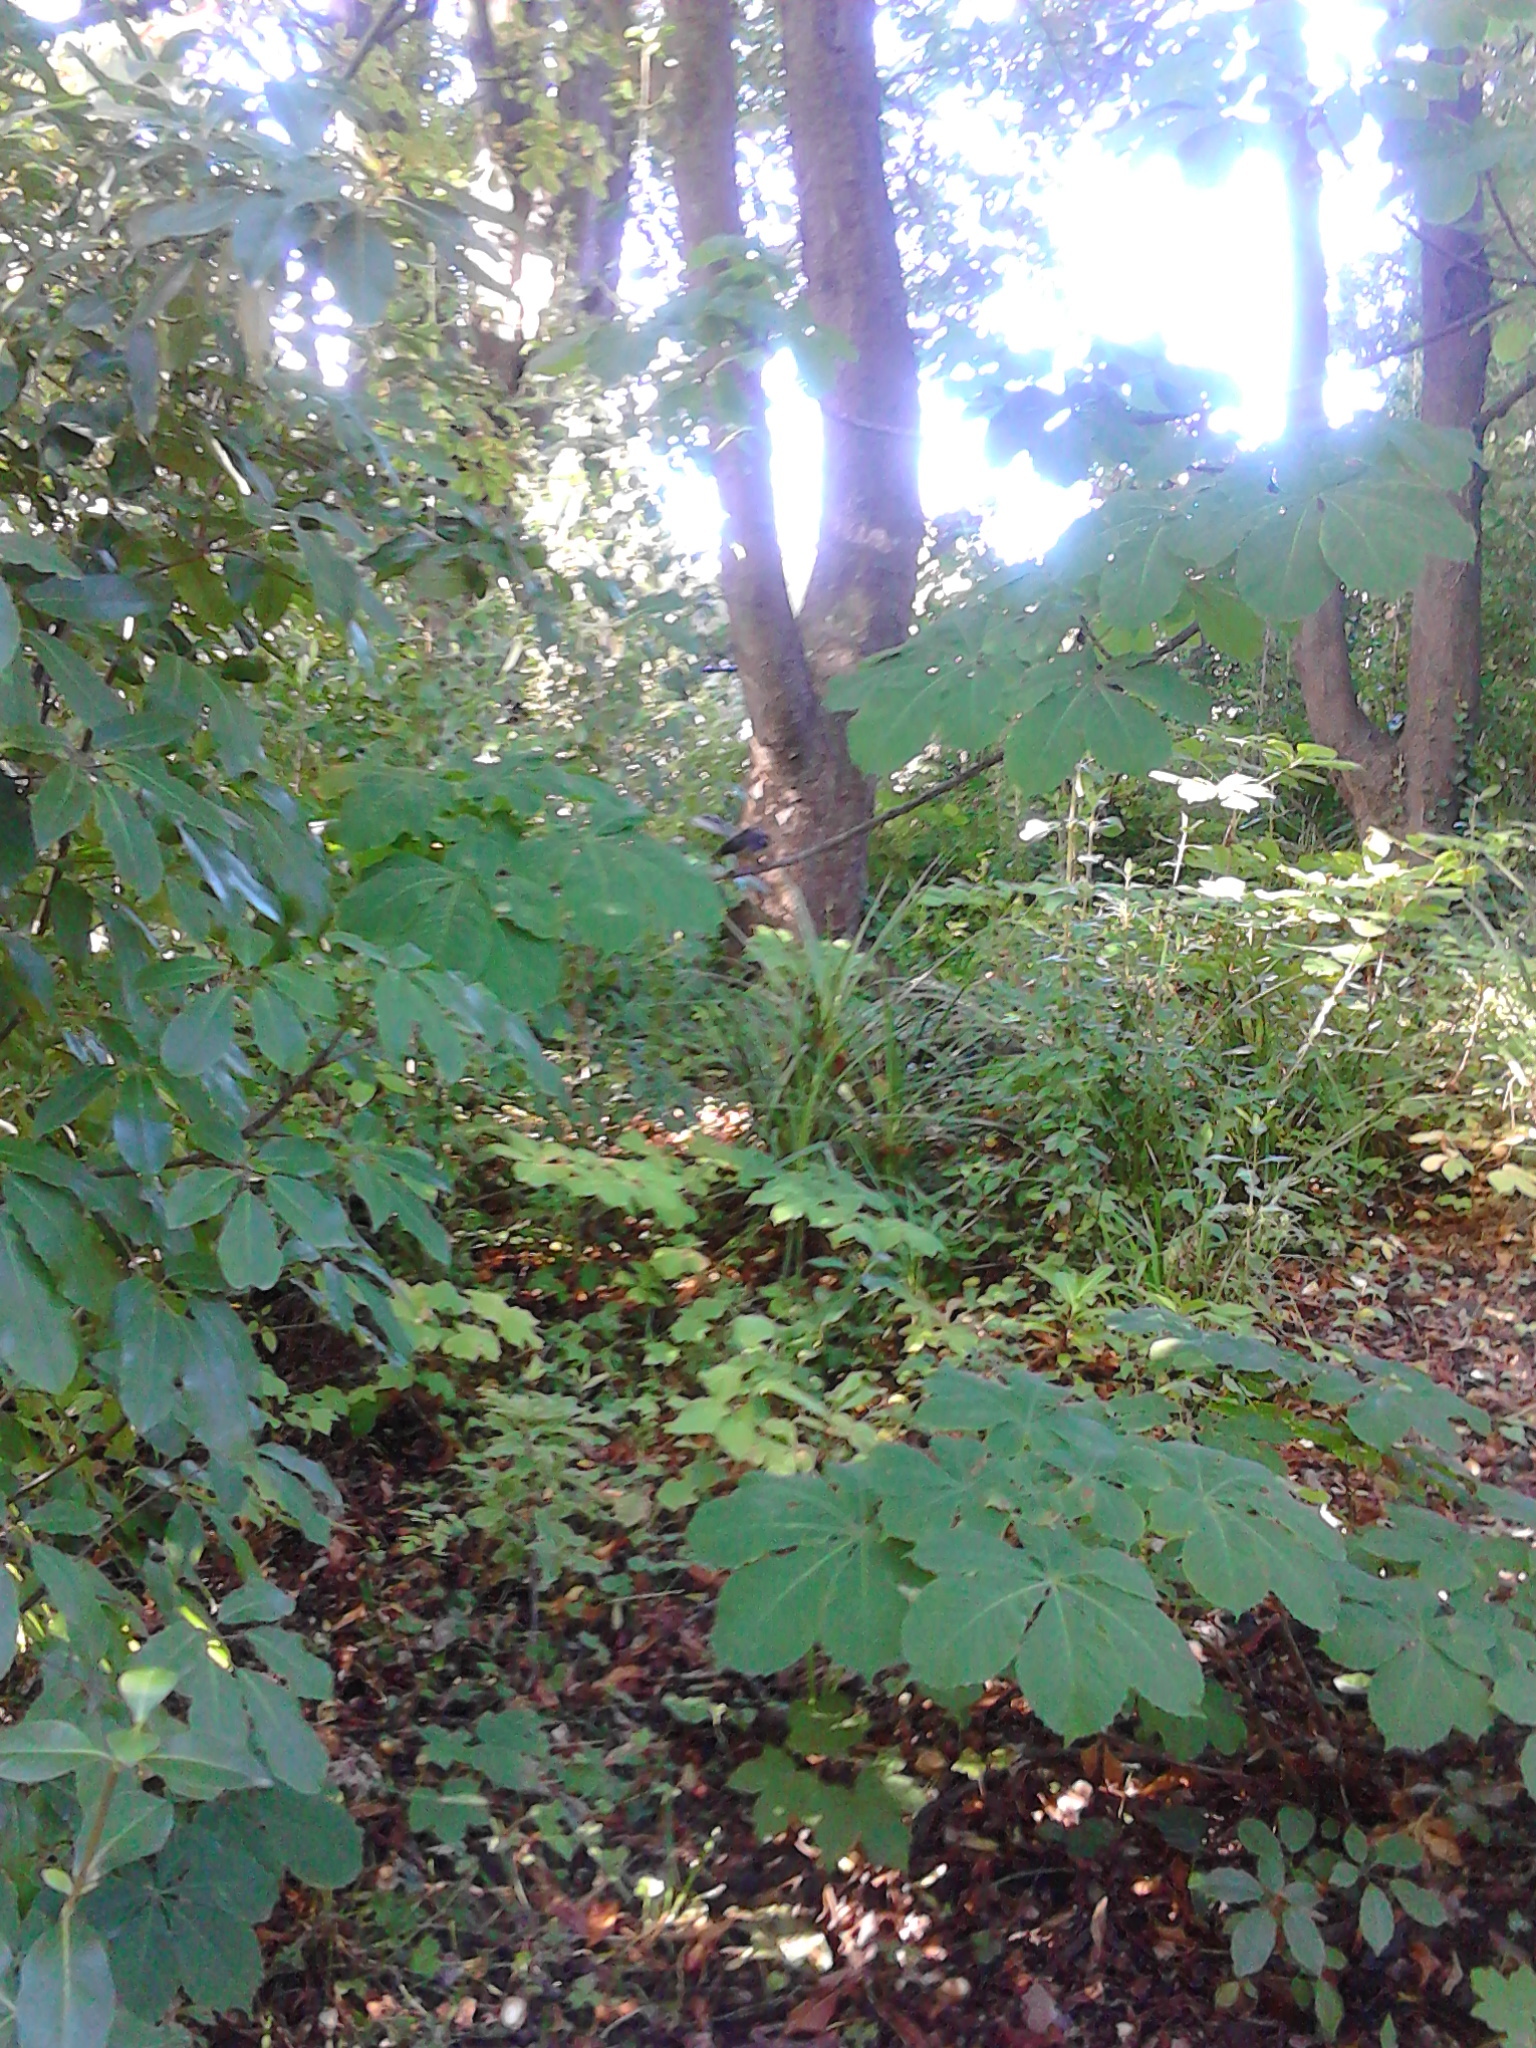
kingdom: Animalia
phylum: Chordata
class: Aves
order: Passeriformes
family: Rhipiduridae
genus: Rhipidura
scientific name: Rhipidura fuliginosa
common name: New zealand fantail
